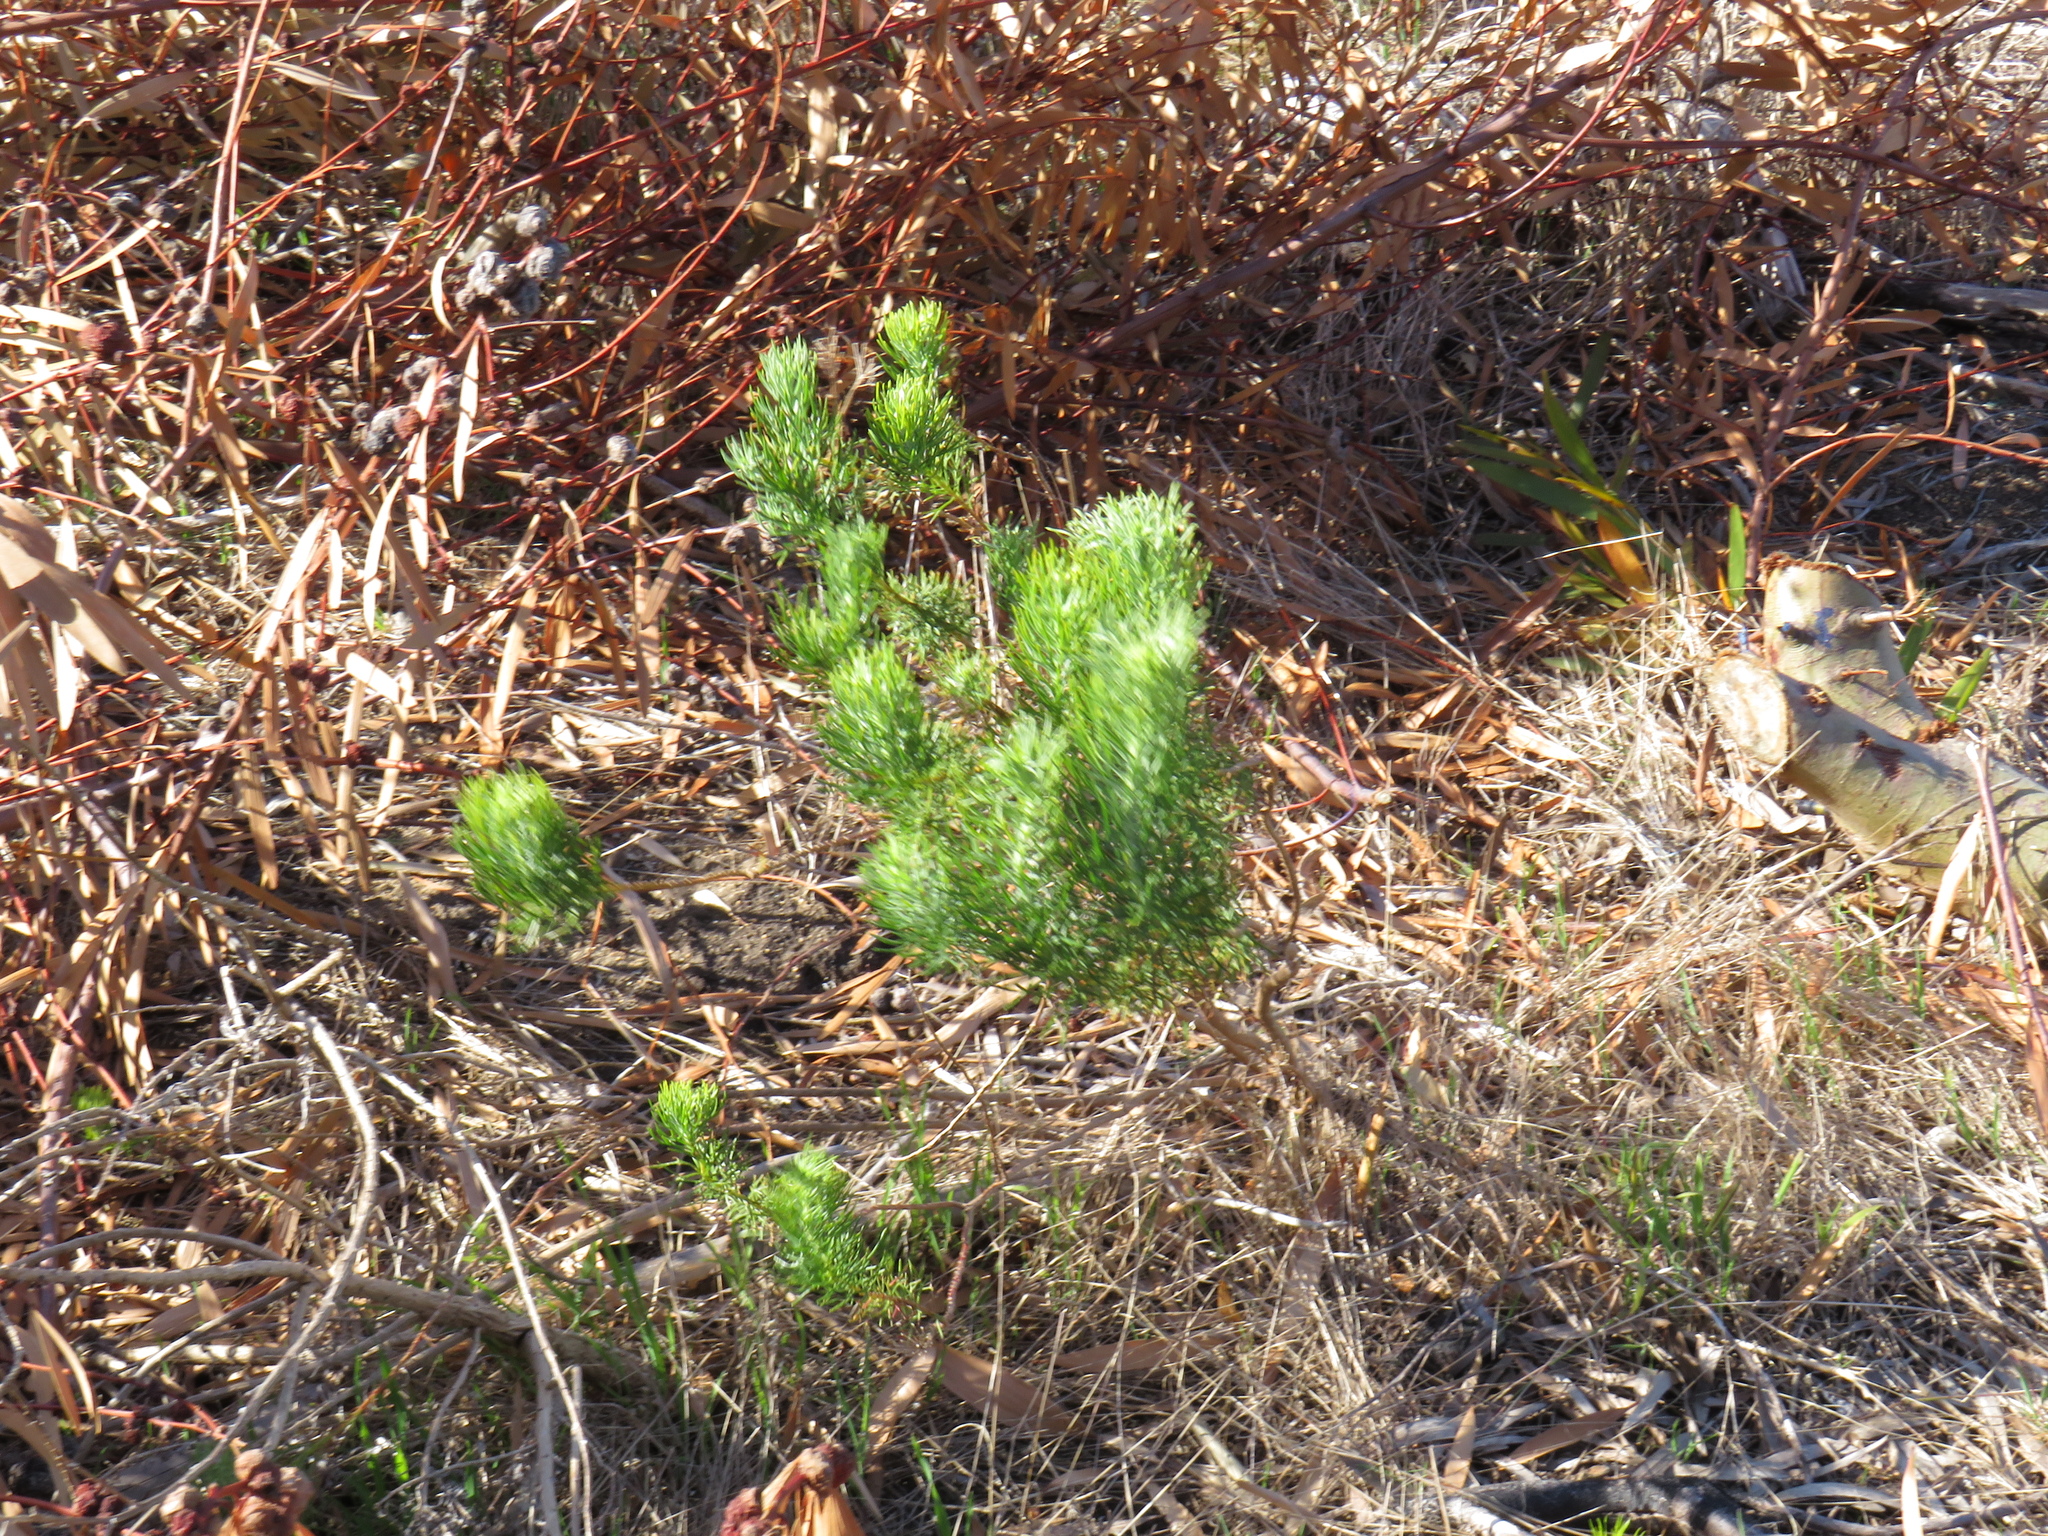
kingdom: Plantae
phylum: Tracheophyta
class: Magnoliopsida
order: Asterales
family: Asteraceae
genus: Athanasia
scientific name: Athanasia crithmifolia
